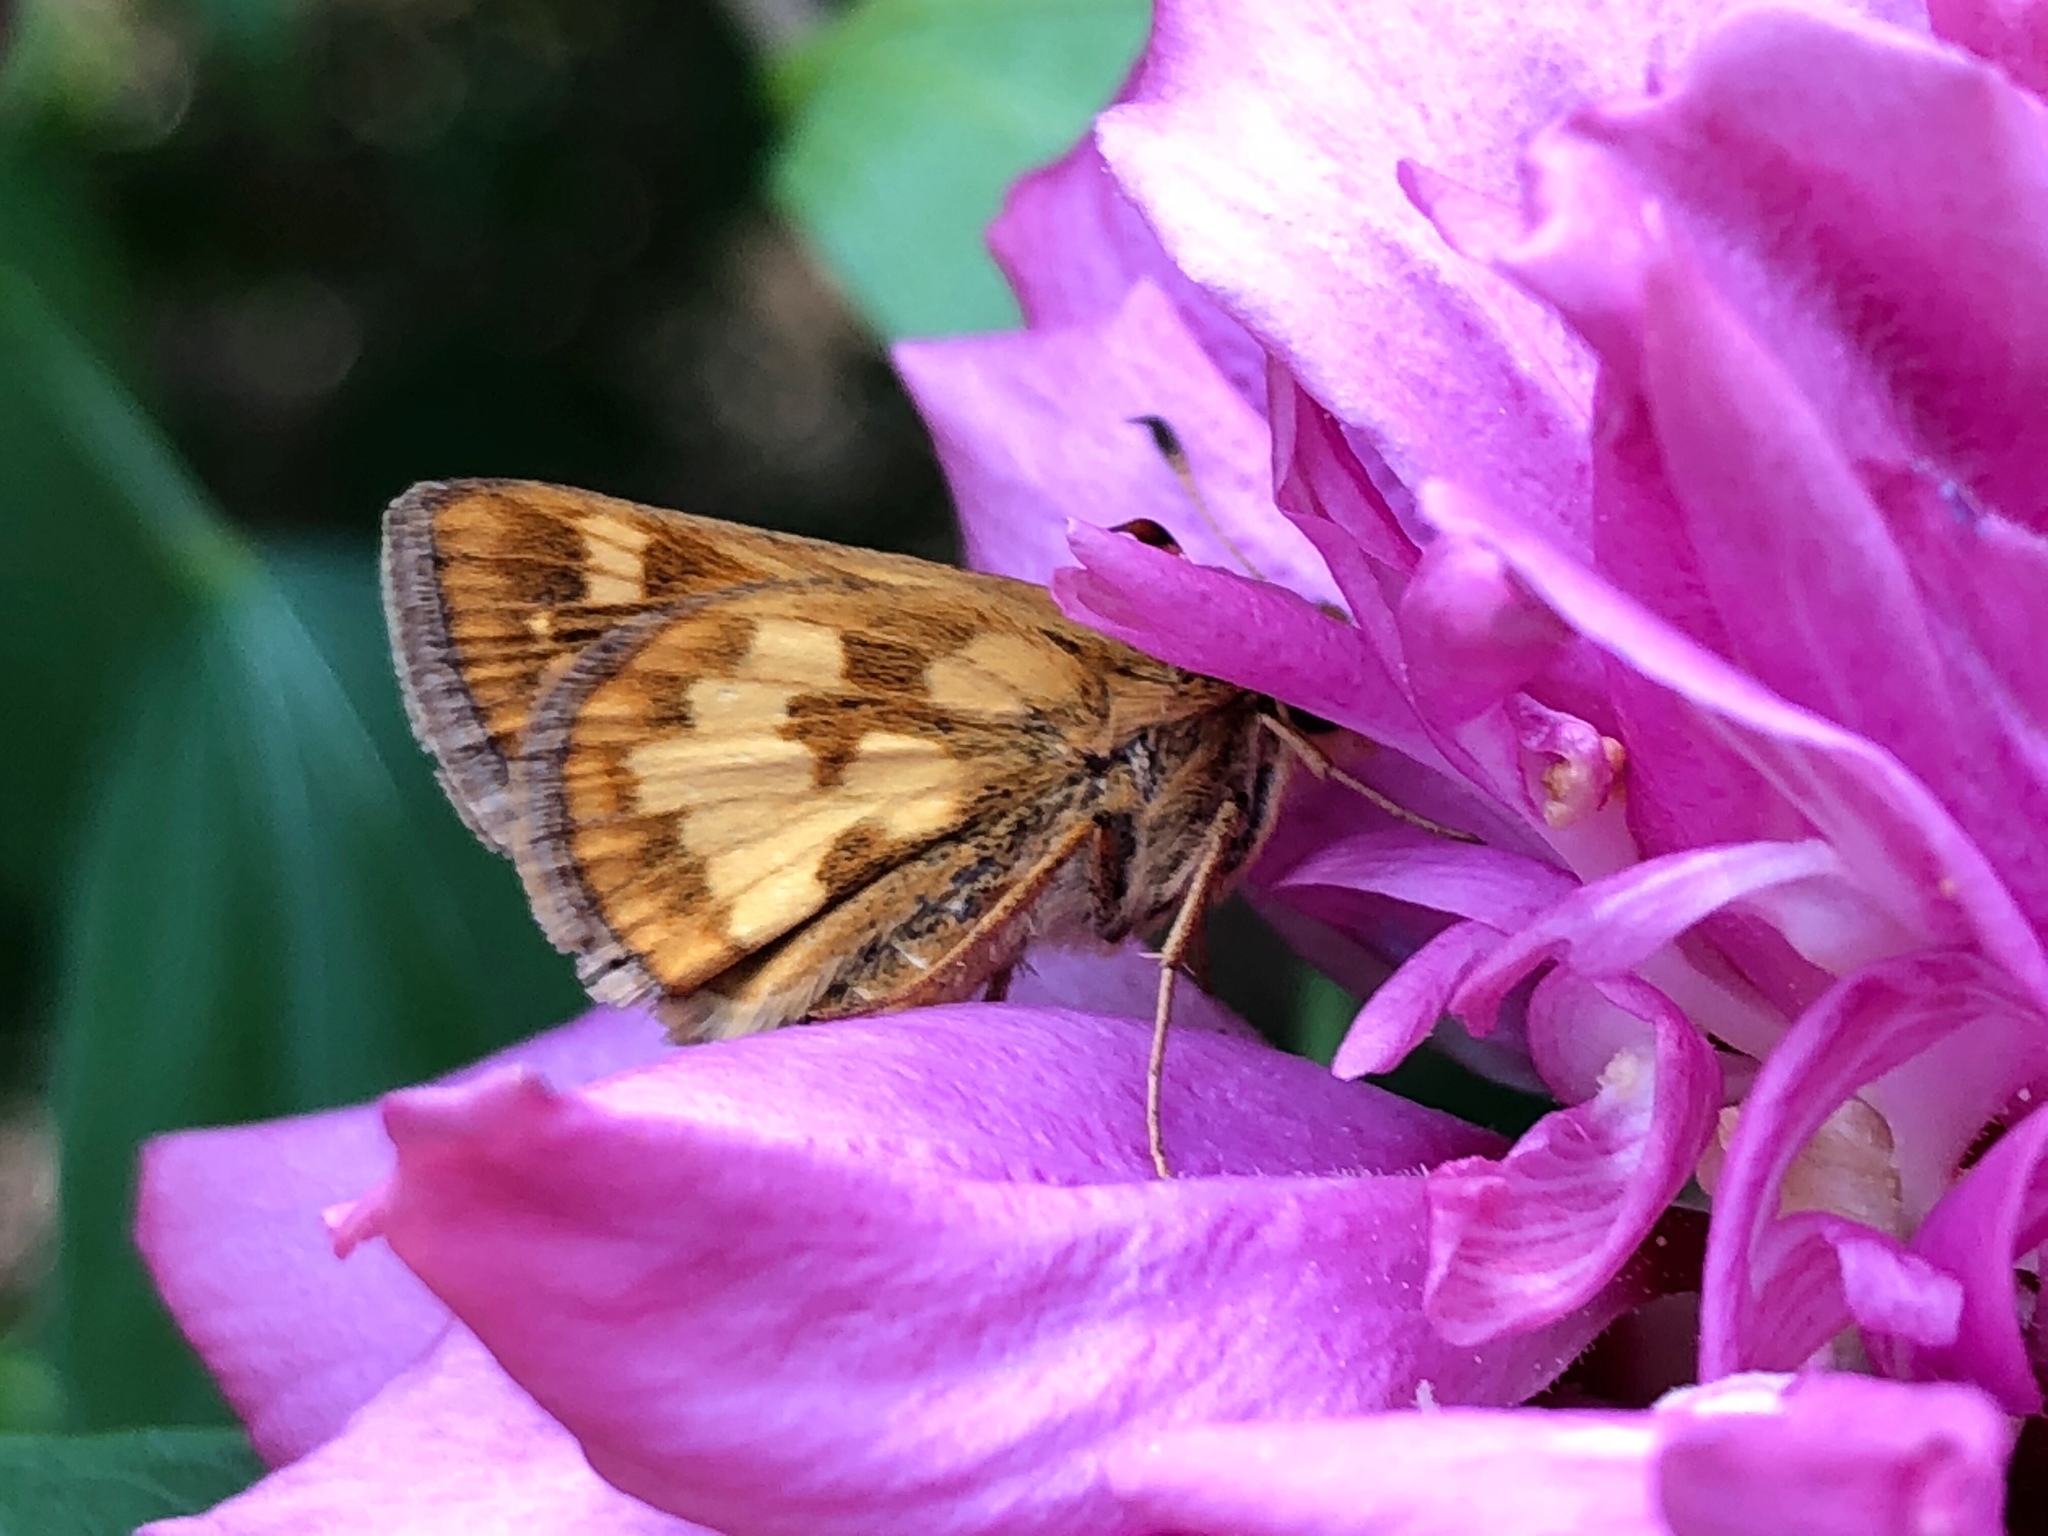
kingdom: Animalia
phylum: Arthropoda
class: Insecta
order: Lepidoptera
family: Hesperiidae
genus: Polites
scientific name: Polites coras
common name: Peck's skipper
